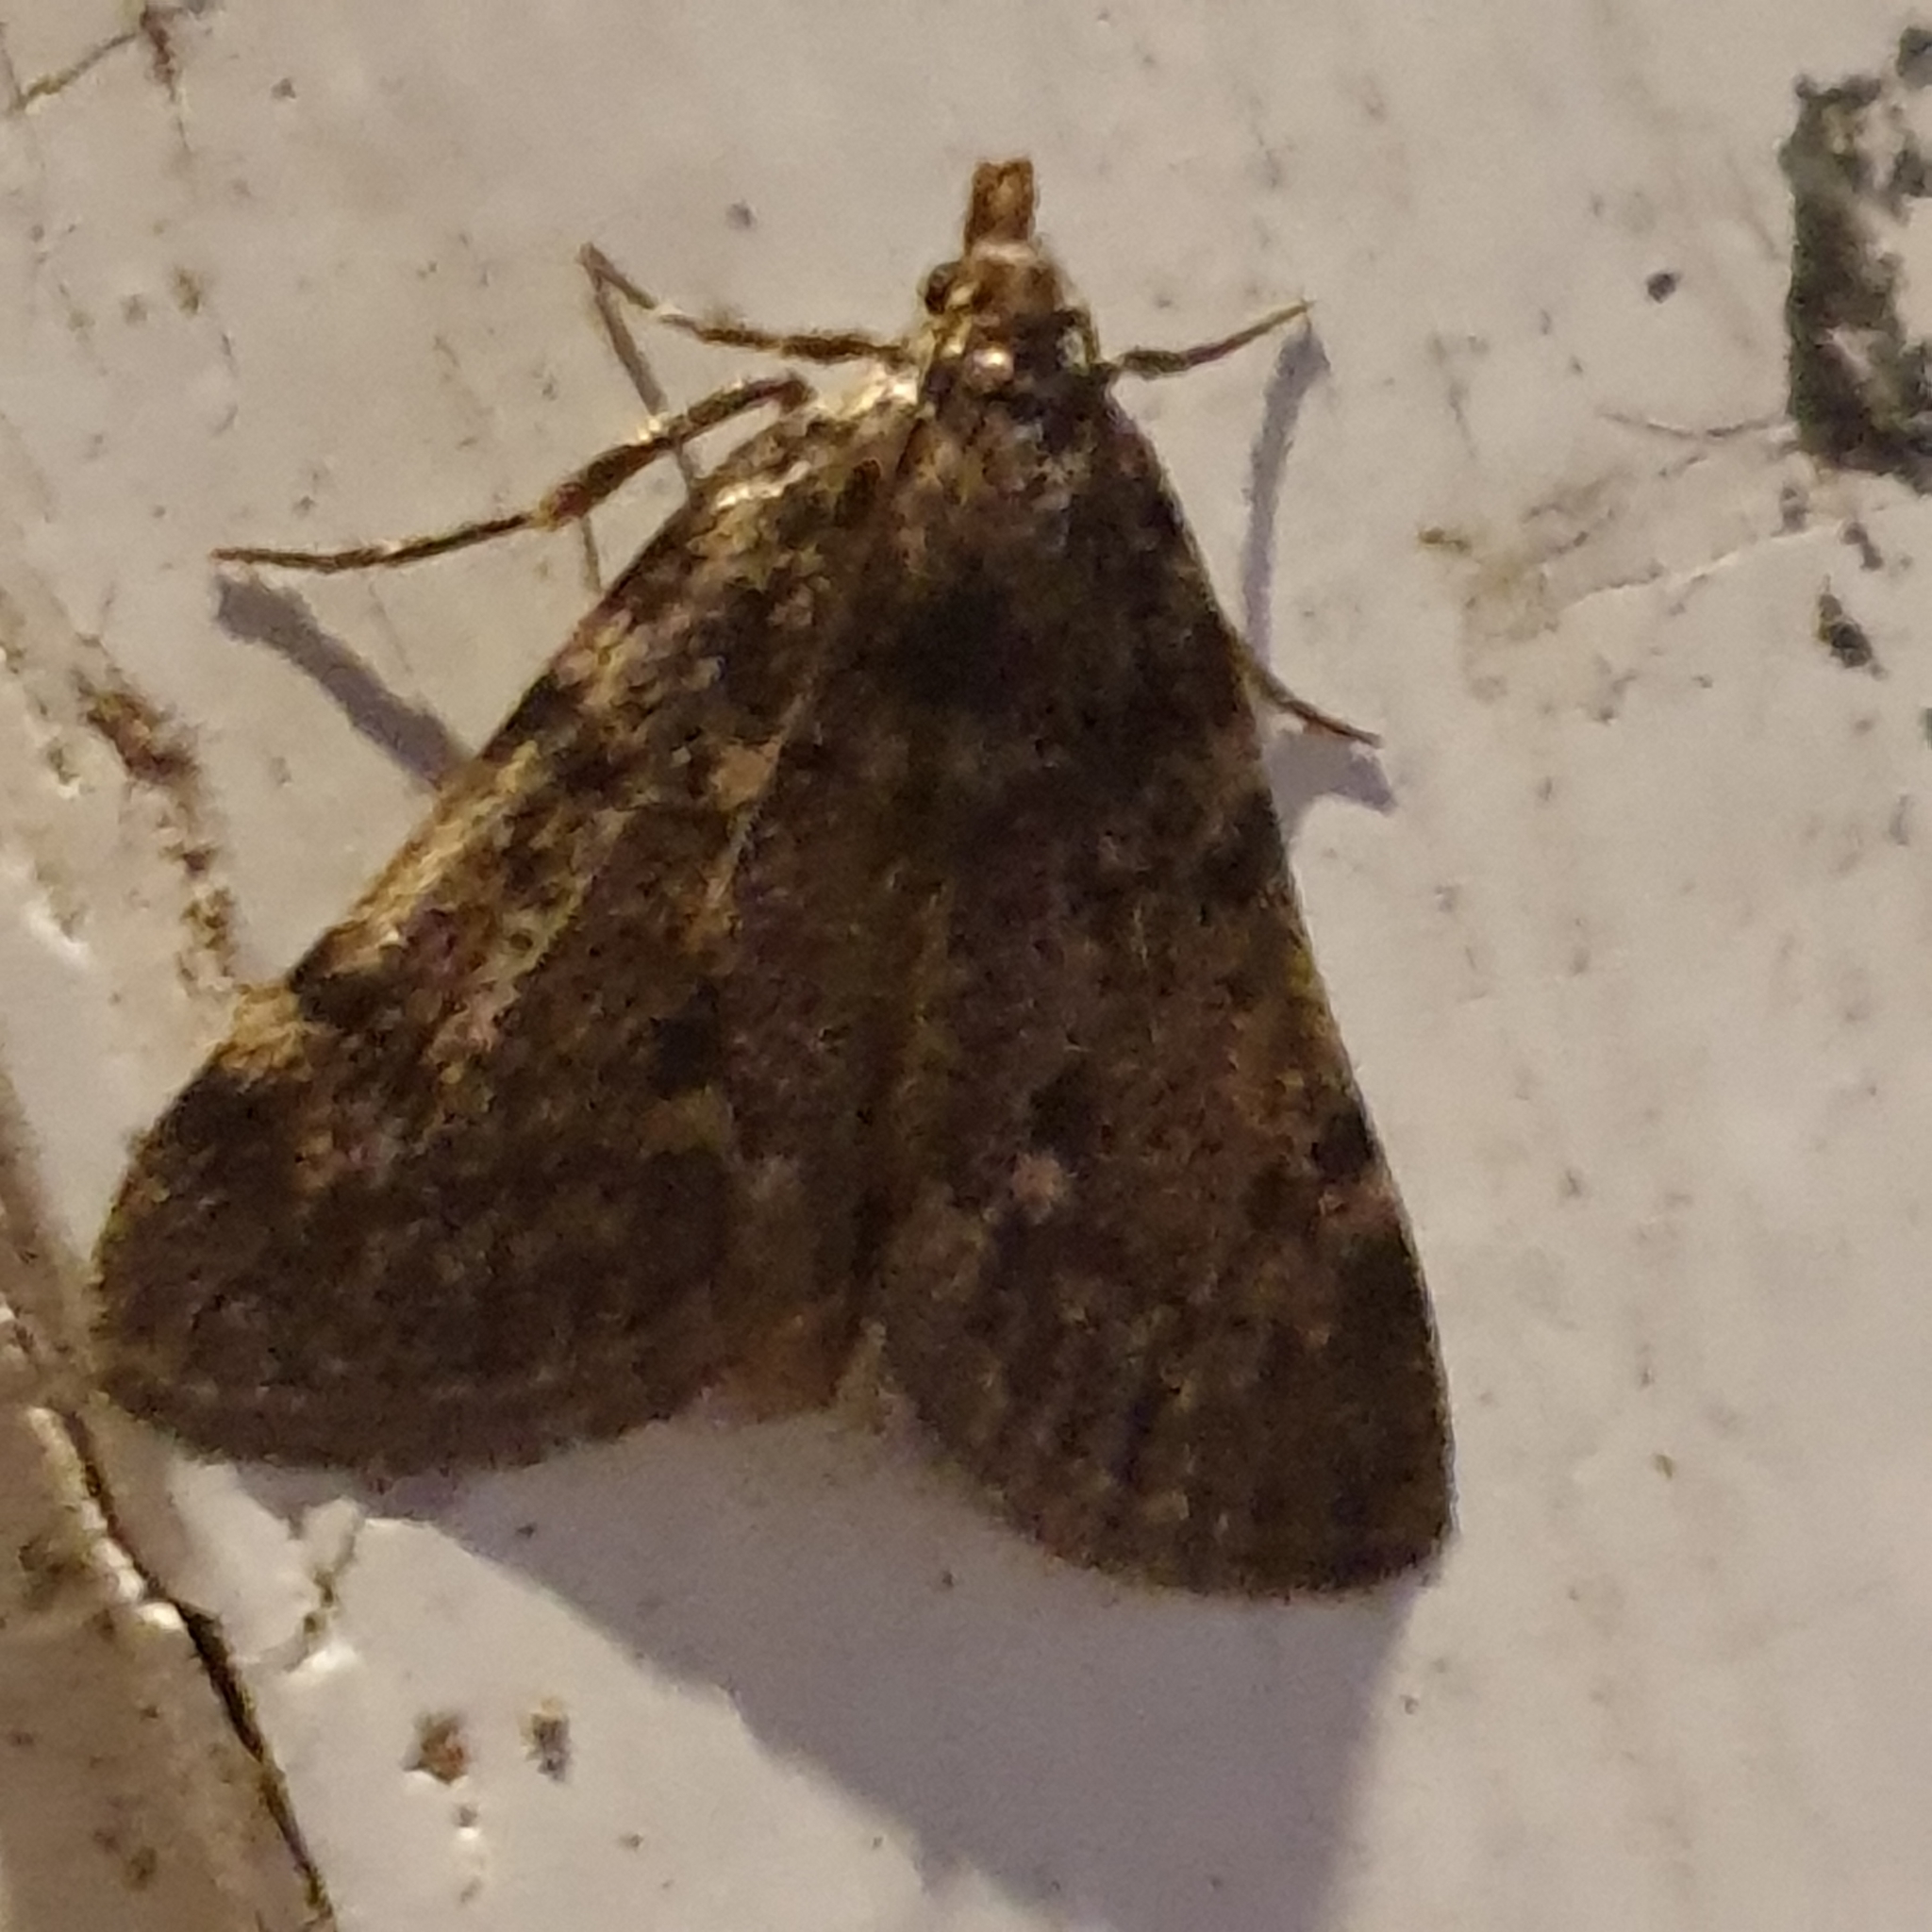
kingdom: Animalia
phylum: Arthropoda
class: Insecta
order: Lepidoptera
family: Pyralidae
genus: Aglossa
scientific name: Aglossa pinguinalis
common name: Large tabby
